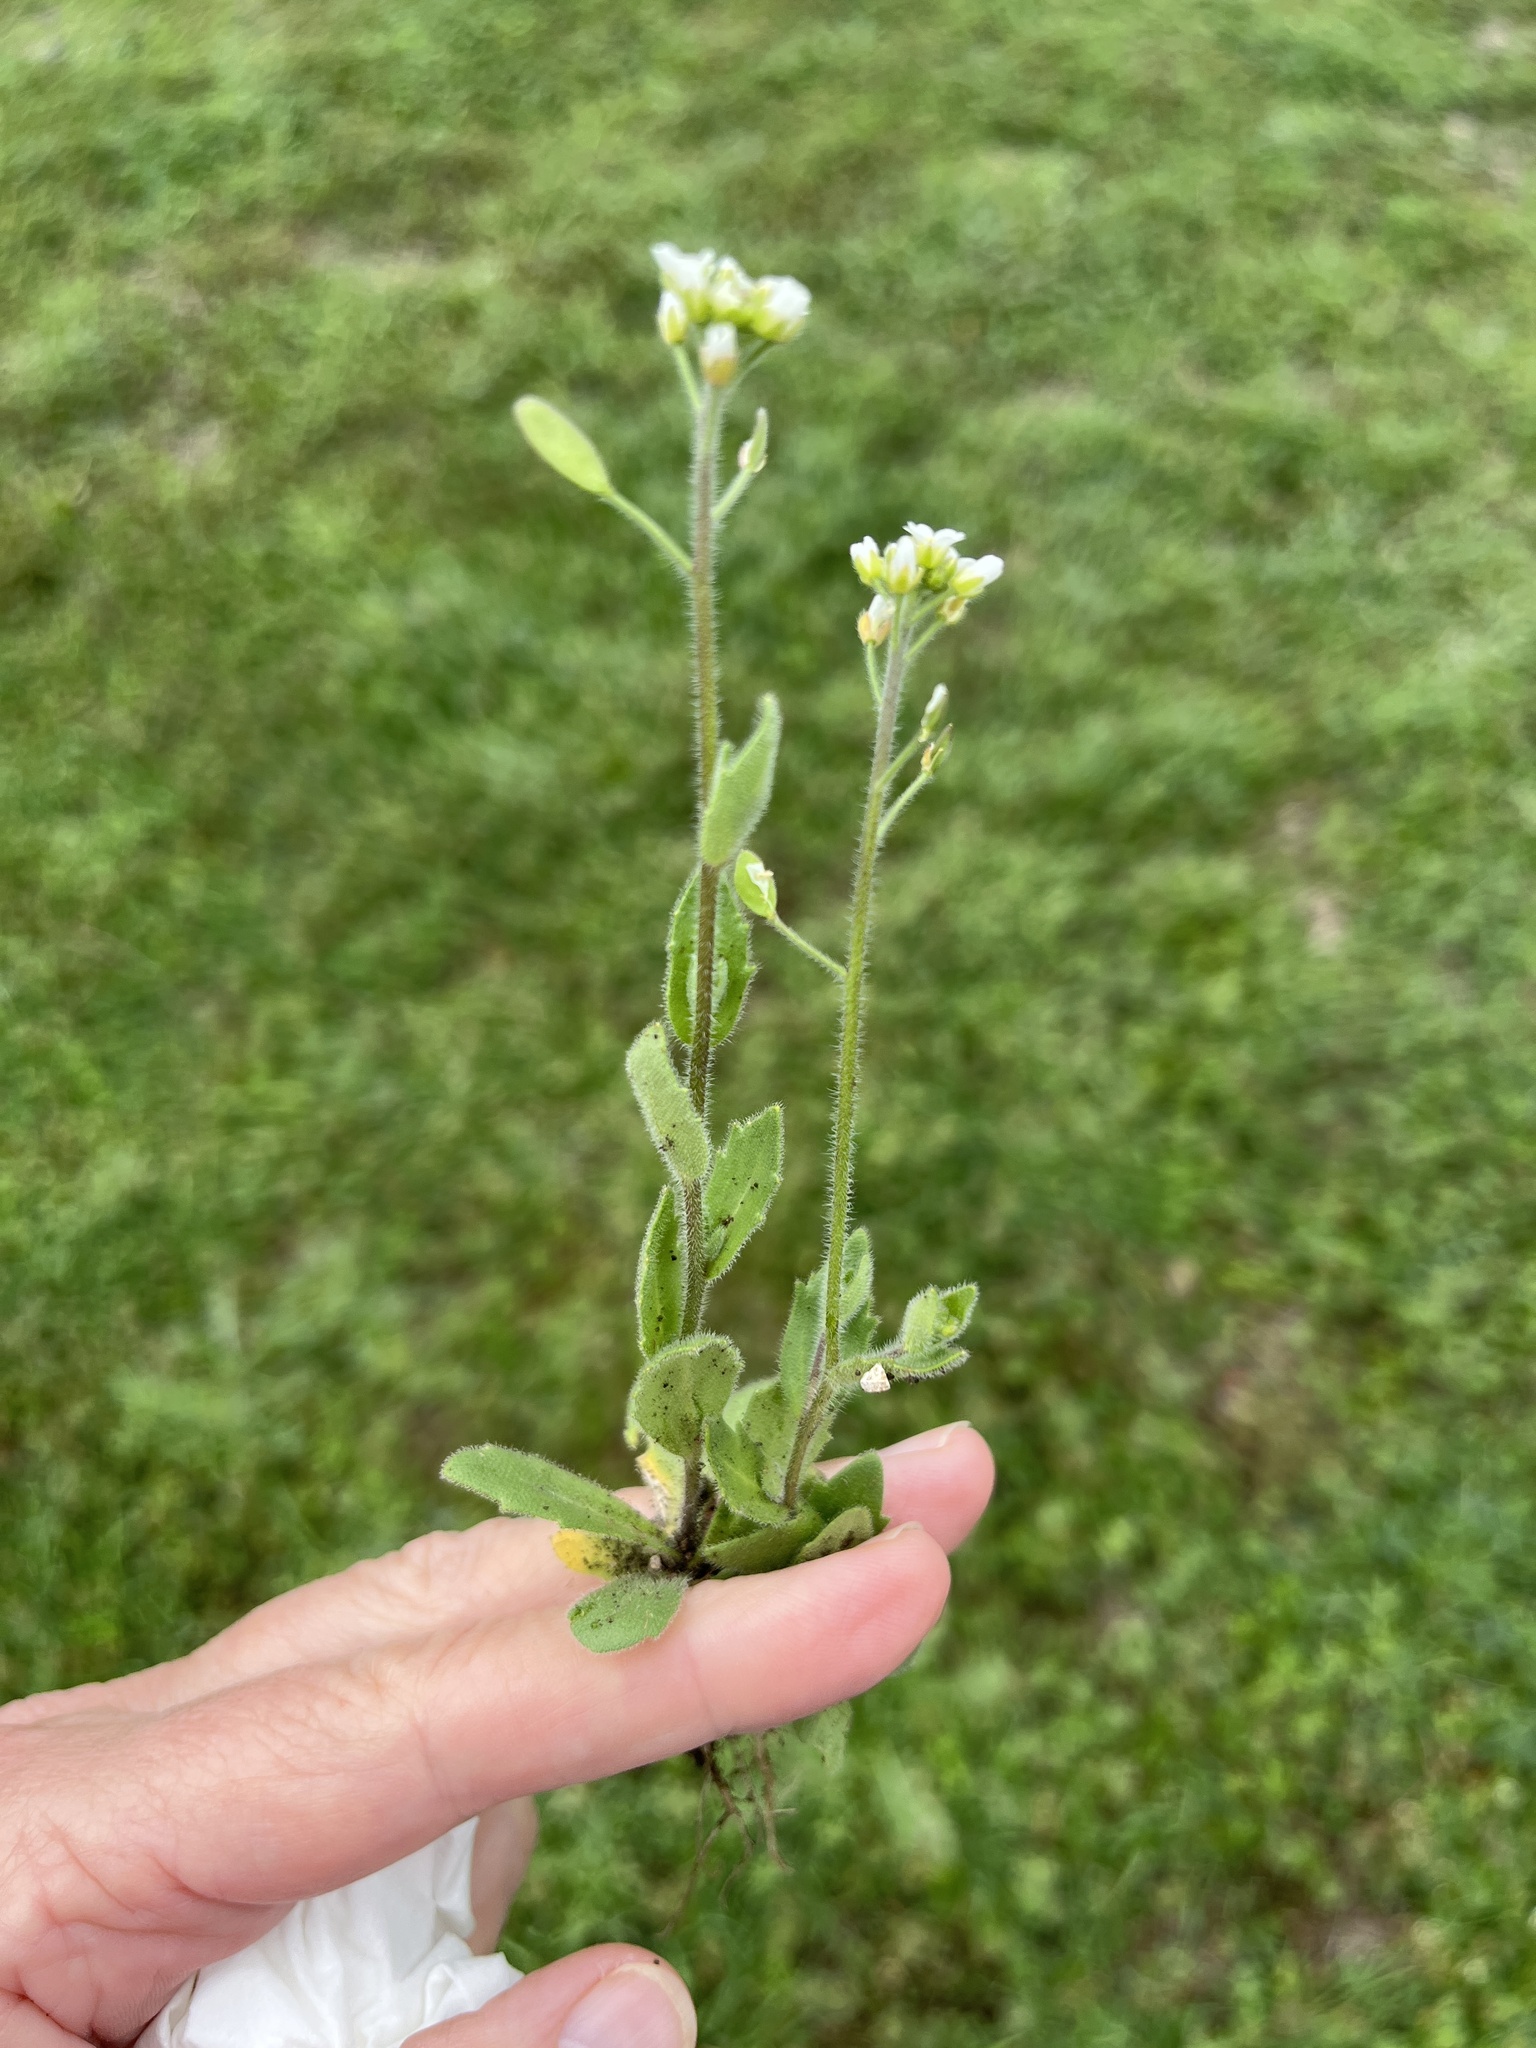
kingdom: Plantae
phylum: Tracheophyta
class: Magnoliopsida
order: Brassicales
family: Brassicaceae
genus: Tomostima
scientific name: Tomostima platycarpa
